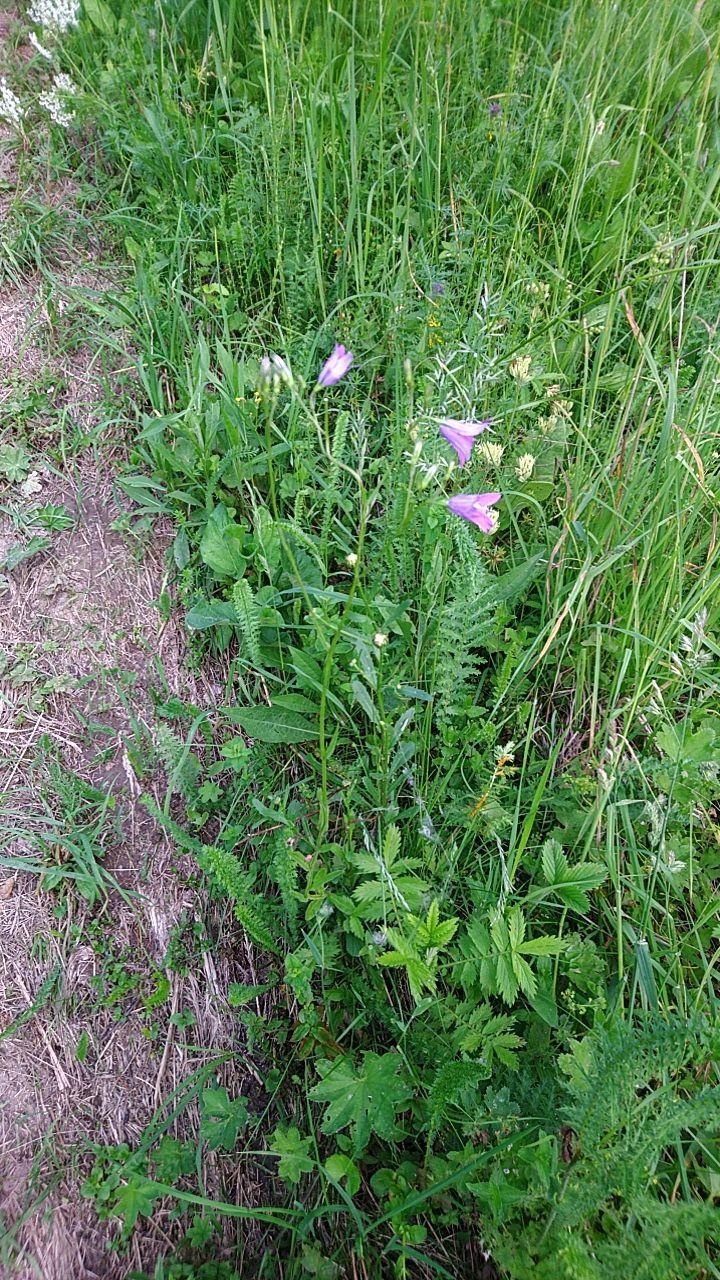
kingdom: Plantae
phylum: Tracheophyta
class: Magnoliopsida
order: Asterales
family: Campanulaceae
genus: Campanula
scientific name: Campanula patula
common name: Spreading bellflower
